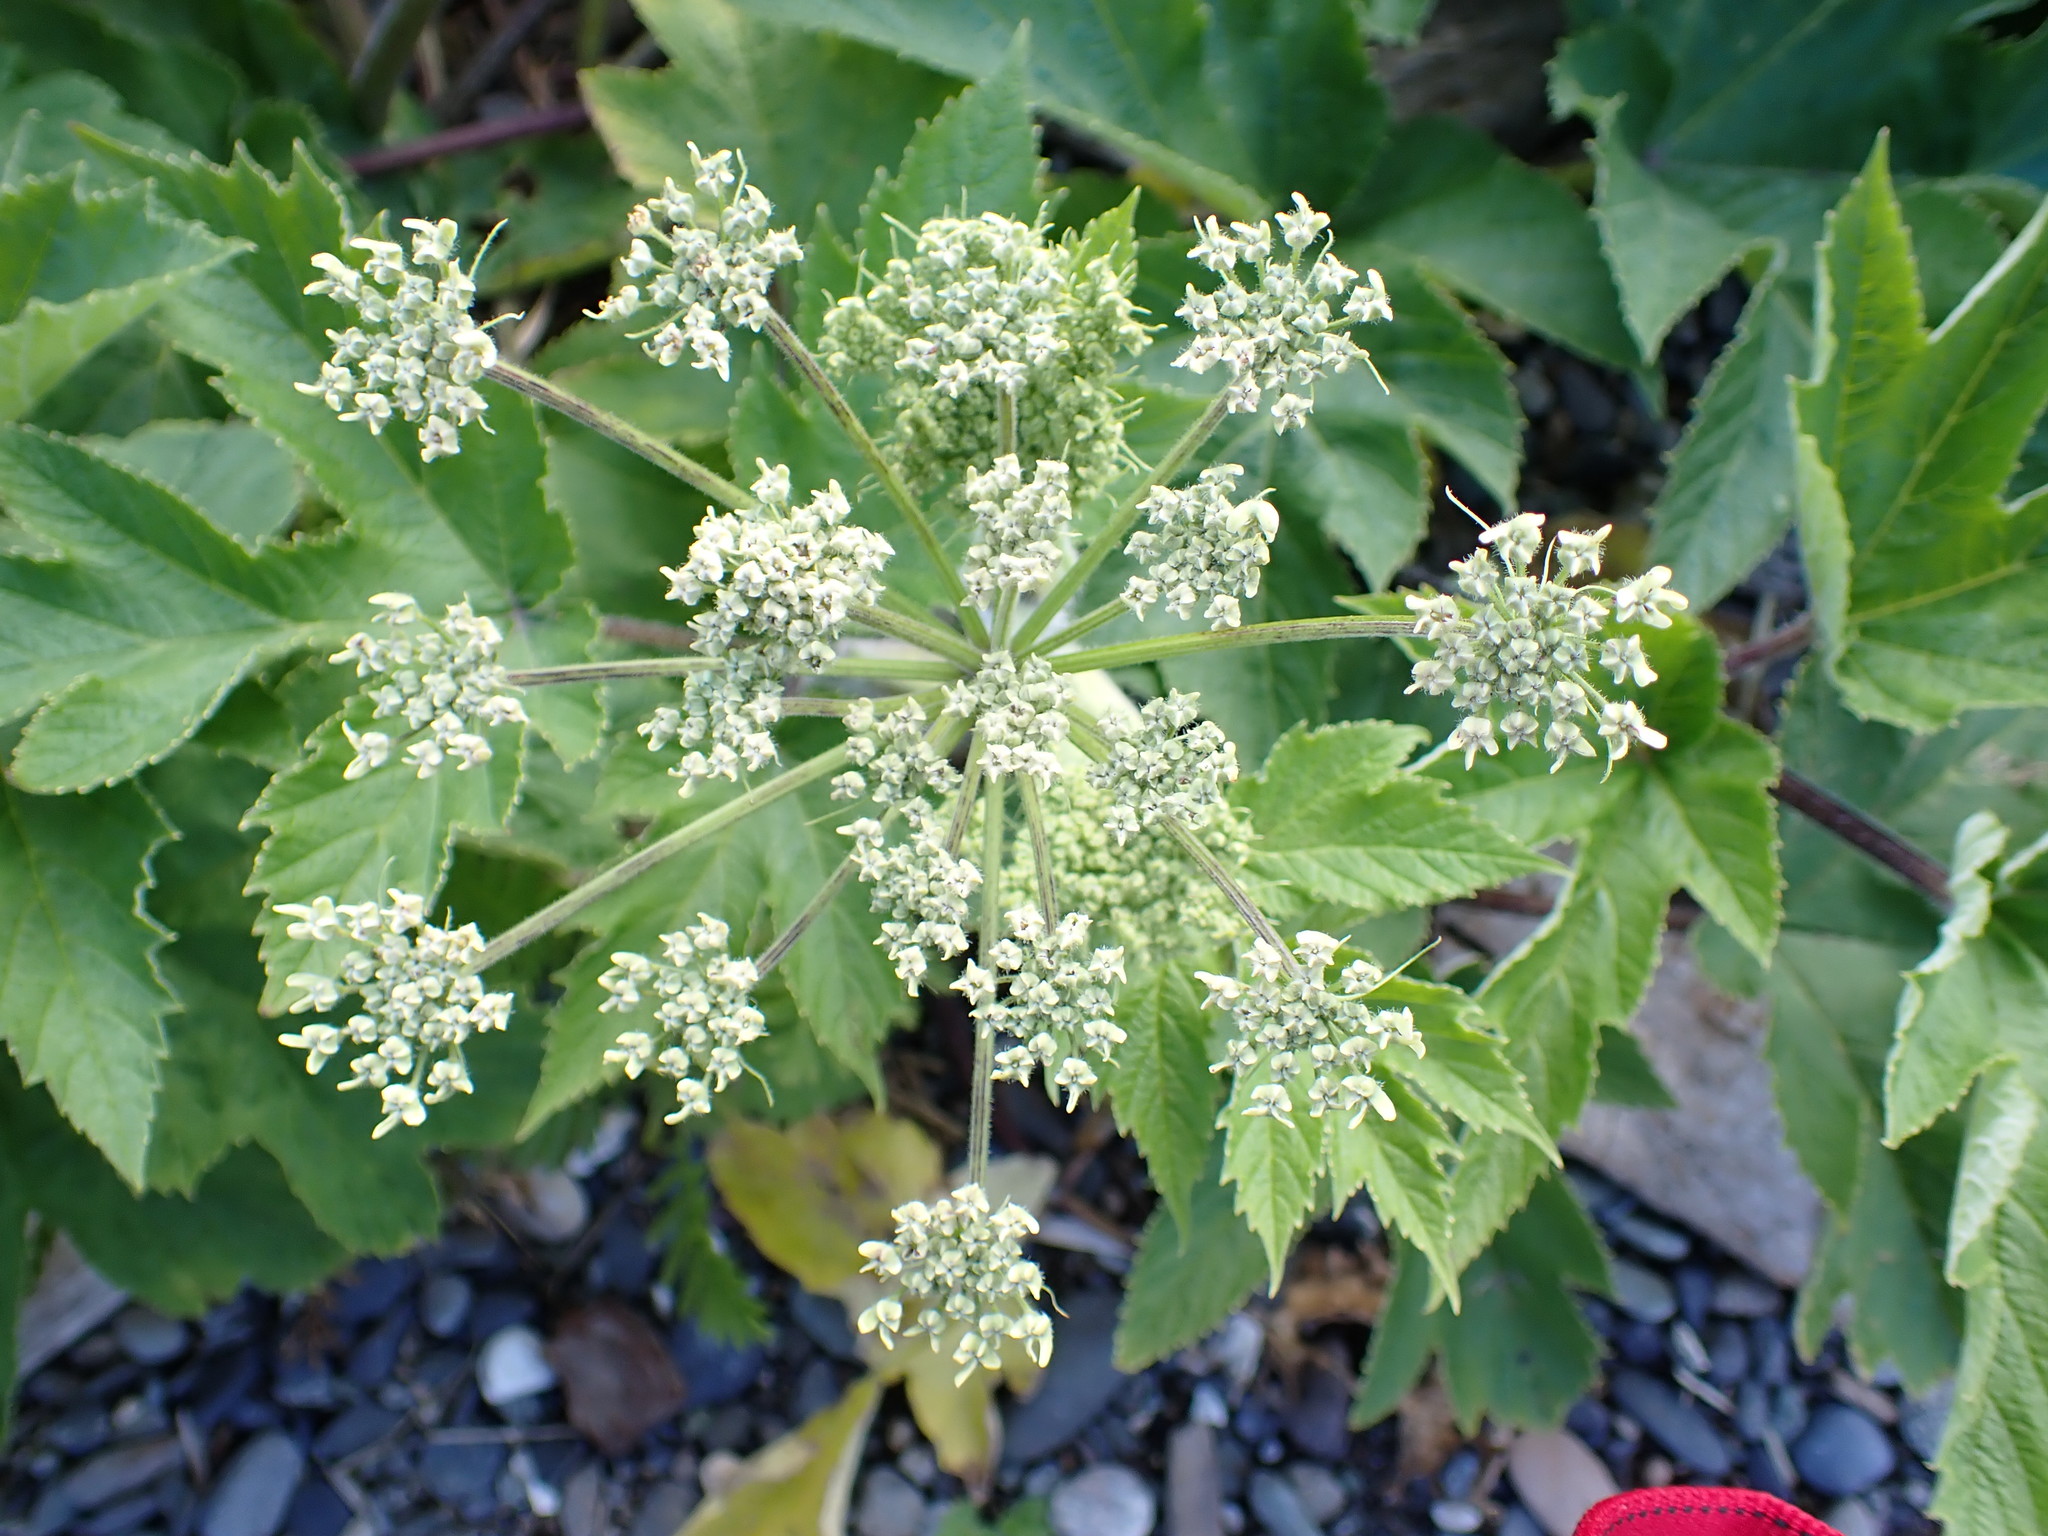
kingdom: Plantae
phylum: Tracheophyta
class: Magnoliopsida
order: Apiales
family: Apiaceae
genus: Heracleum
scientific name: Heracleum maximum
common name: American cow parsnip
